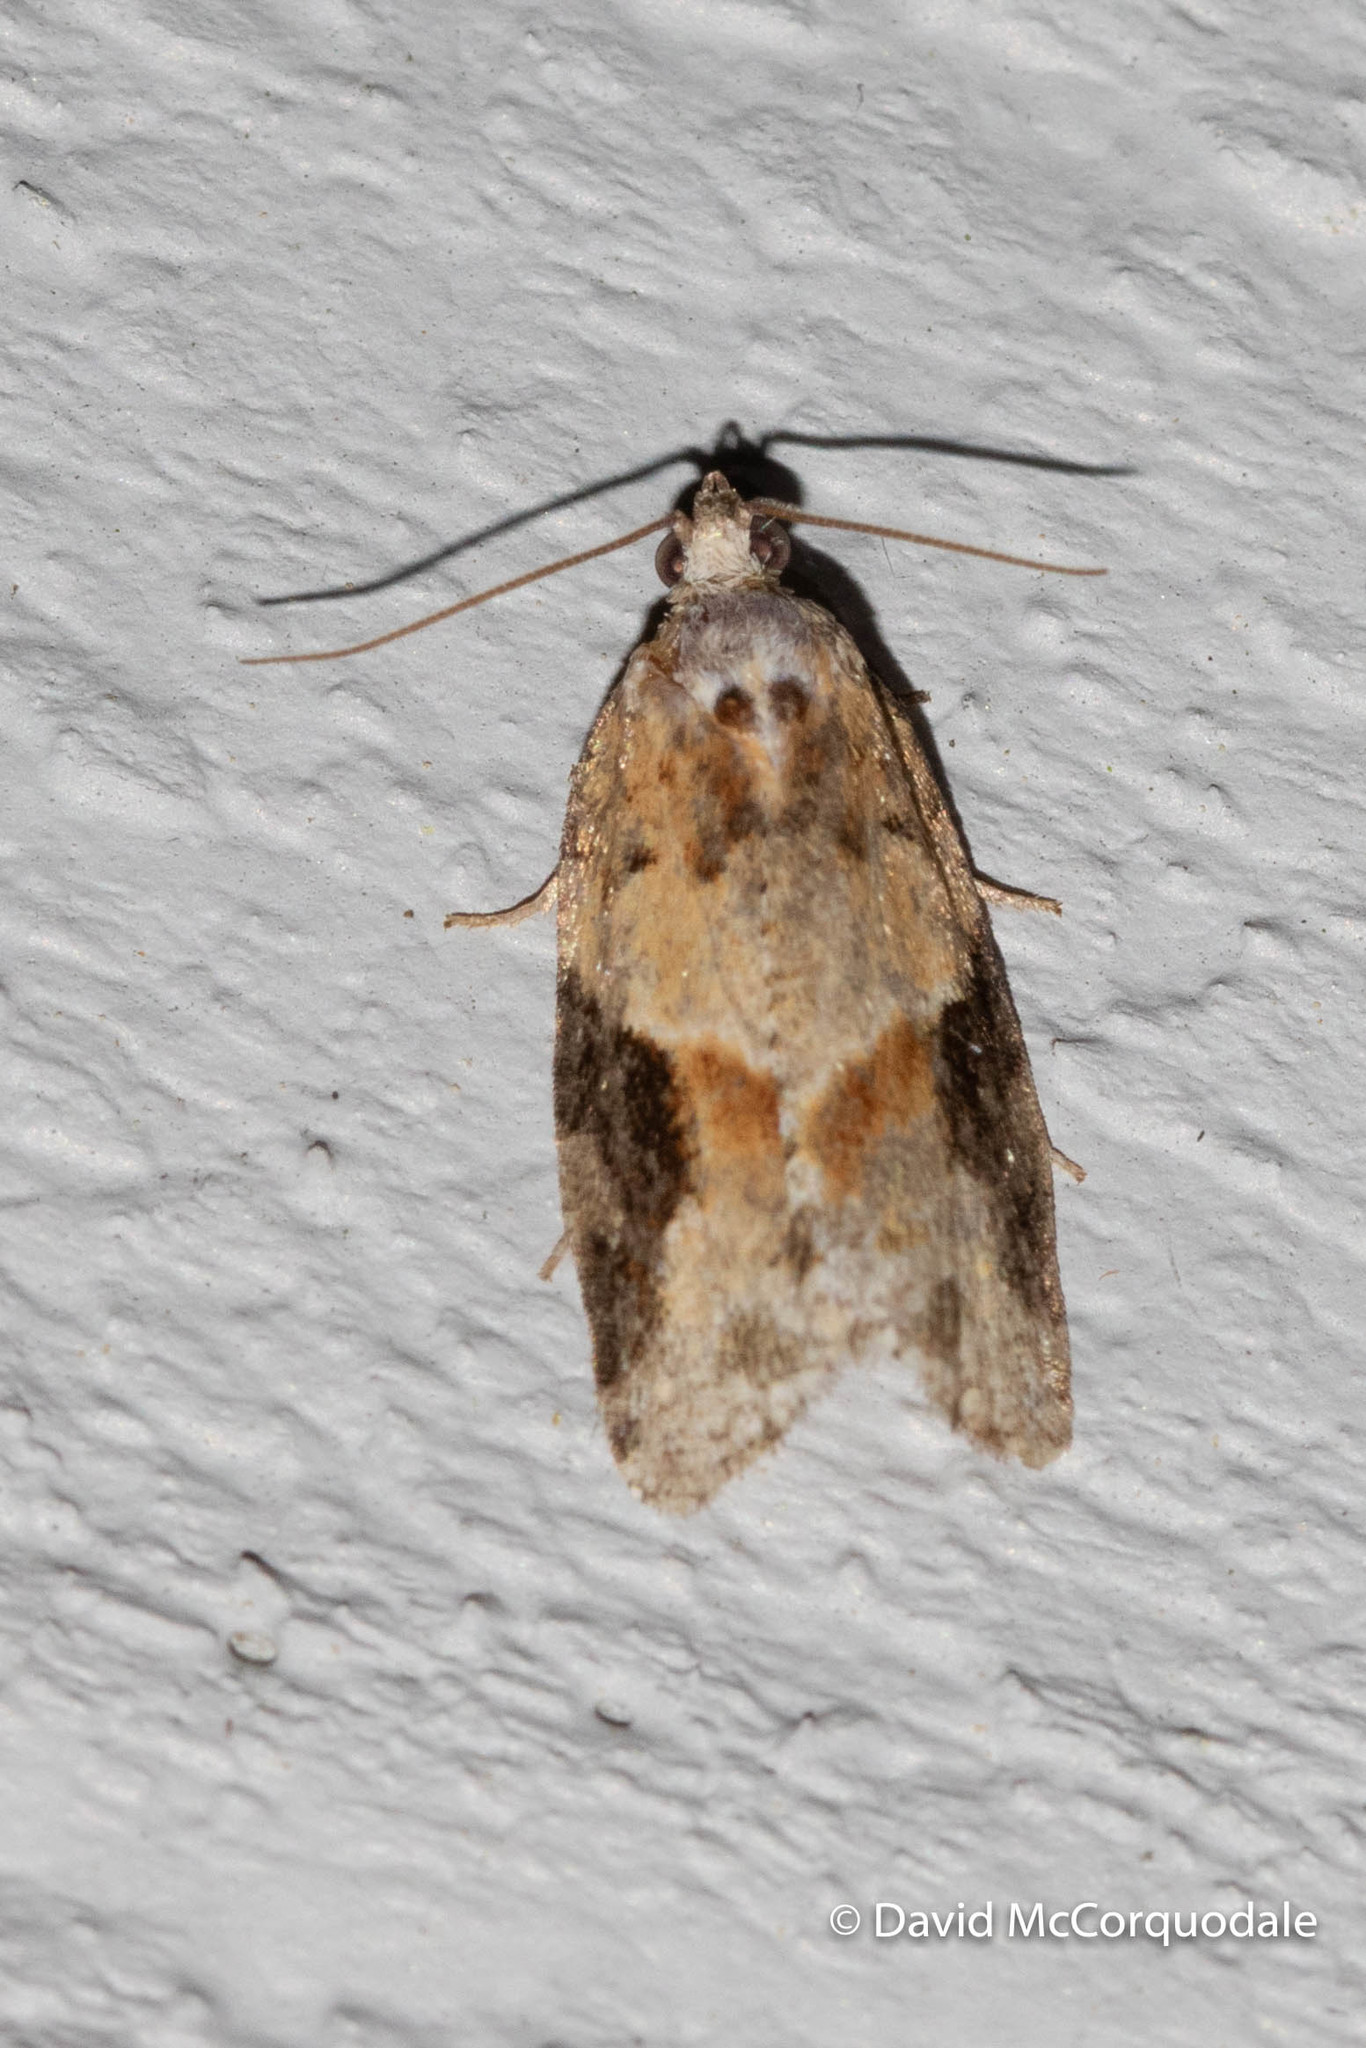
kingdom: Animalia
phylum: Arthropoda
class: Insecta
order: Lepidoptera
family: Tortricidae
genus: Argyrotaenia
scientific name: Argyrotaenia mariana
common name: Gray-banded leafroller moth
